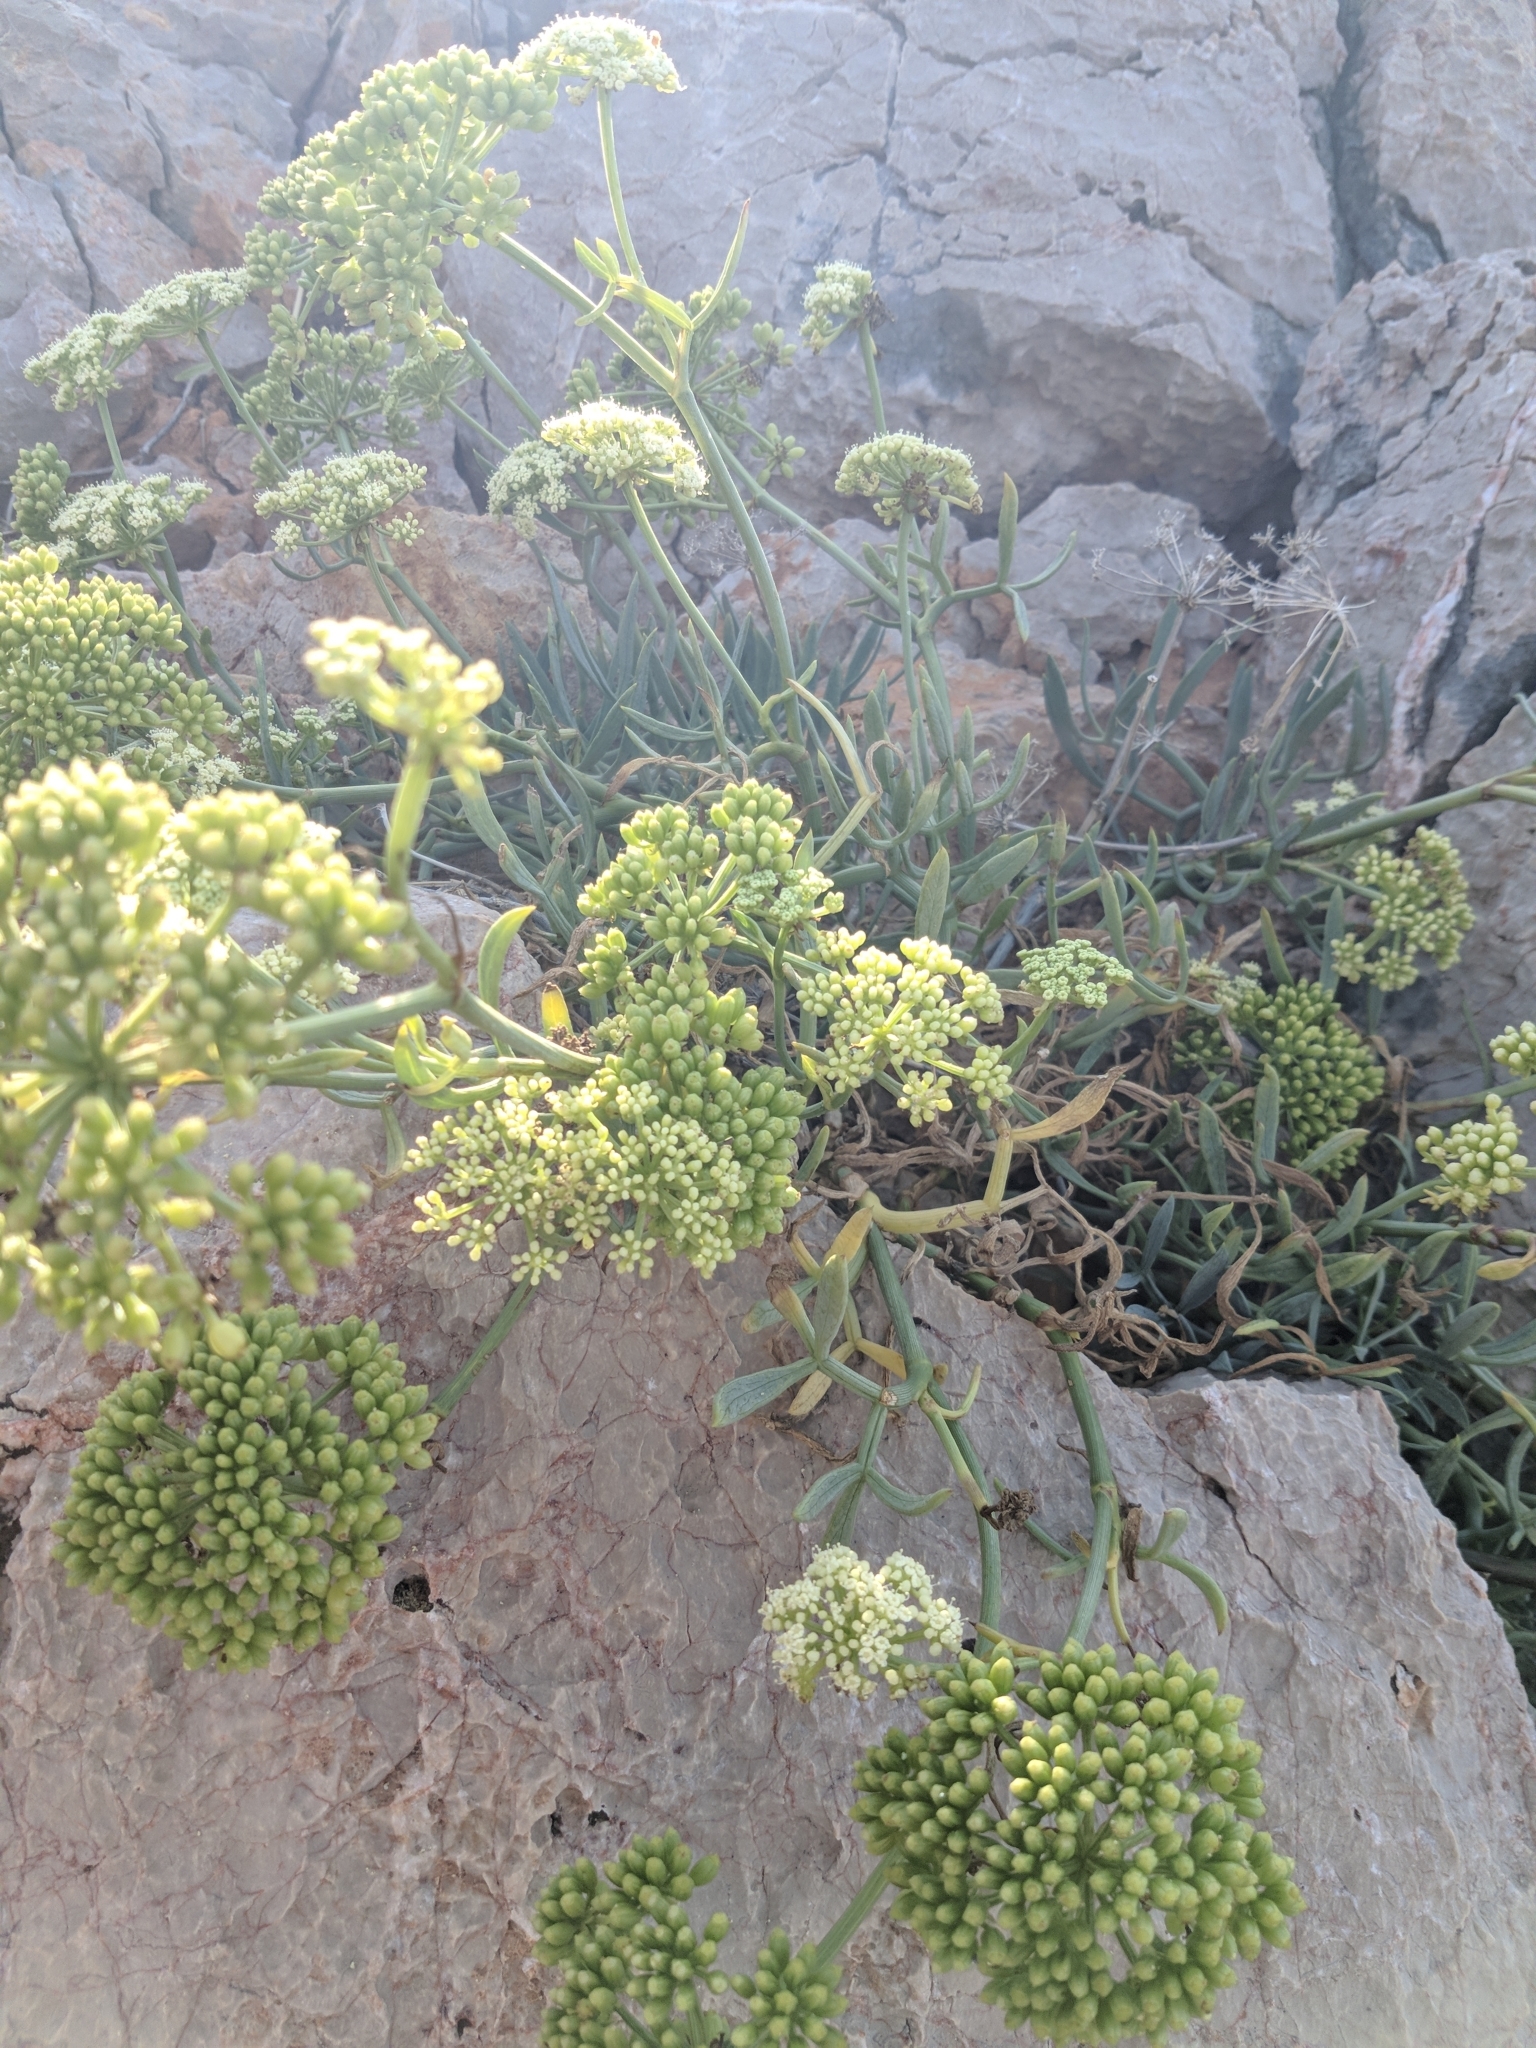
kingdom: Plantae
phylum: Tracheophyta
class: Magnoliopsida
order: Apiales
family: Apiaceae
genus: Crithmum
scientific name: Crithmum maritimum
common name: Rock samphire
